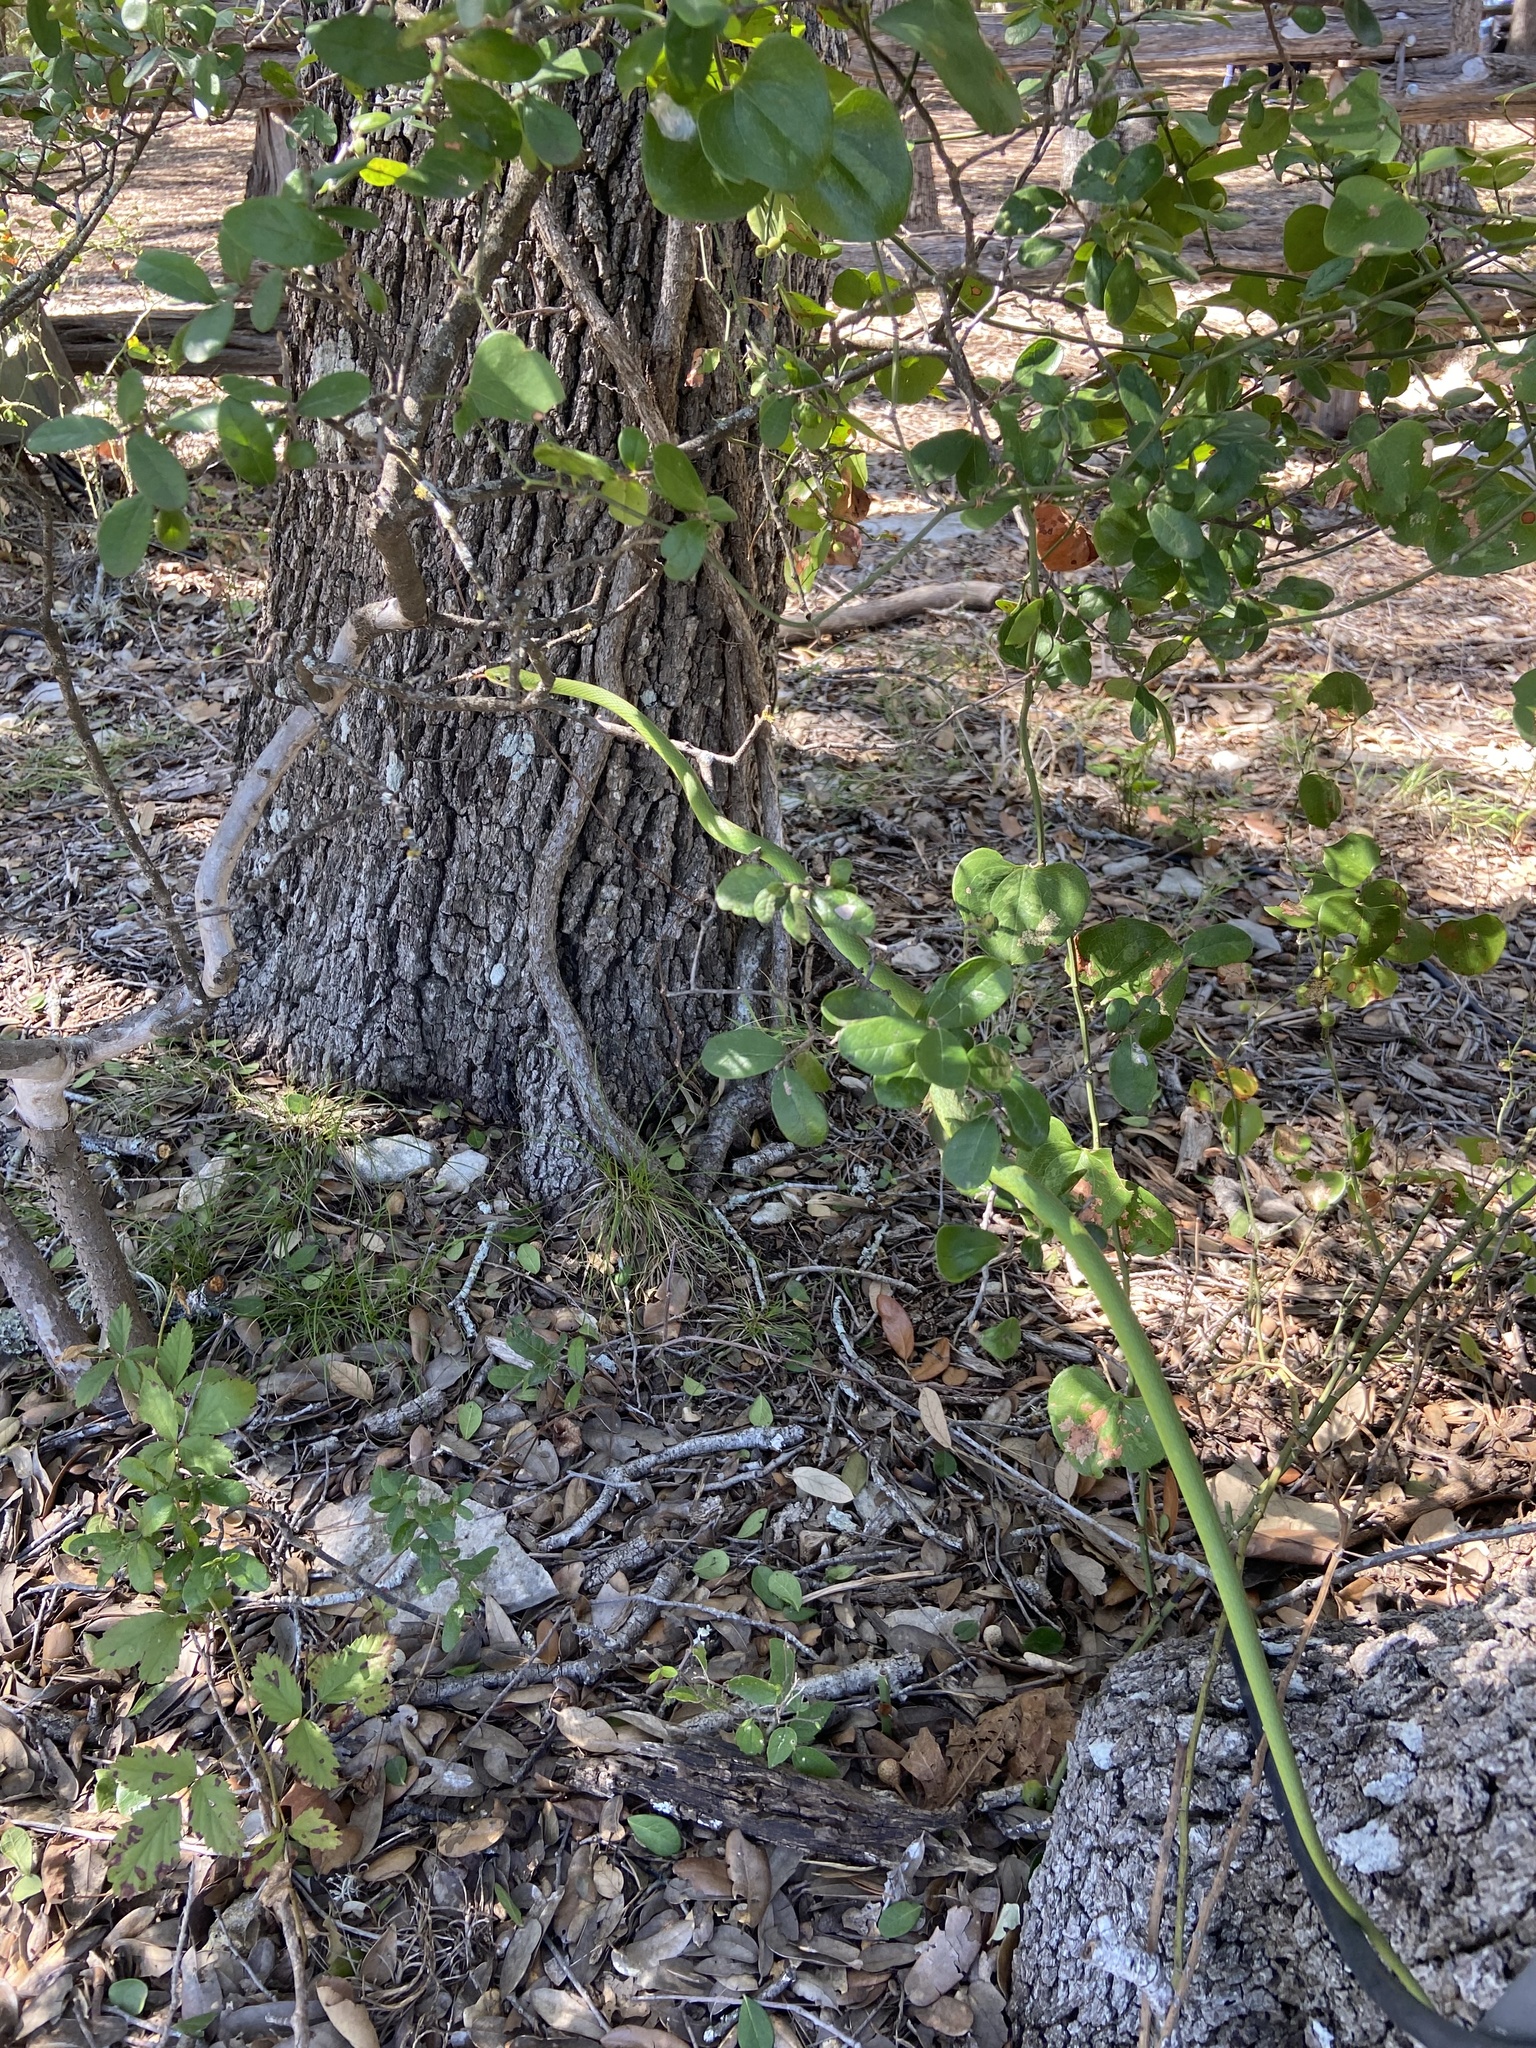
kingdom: Animalia
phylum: Chordata
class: Squamata
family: Colubridae
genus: Opheodrys
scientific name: Opheodrys aestivus
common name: Rough greensnake
